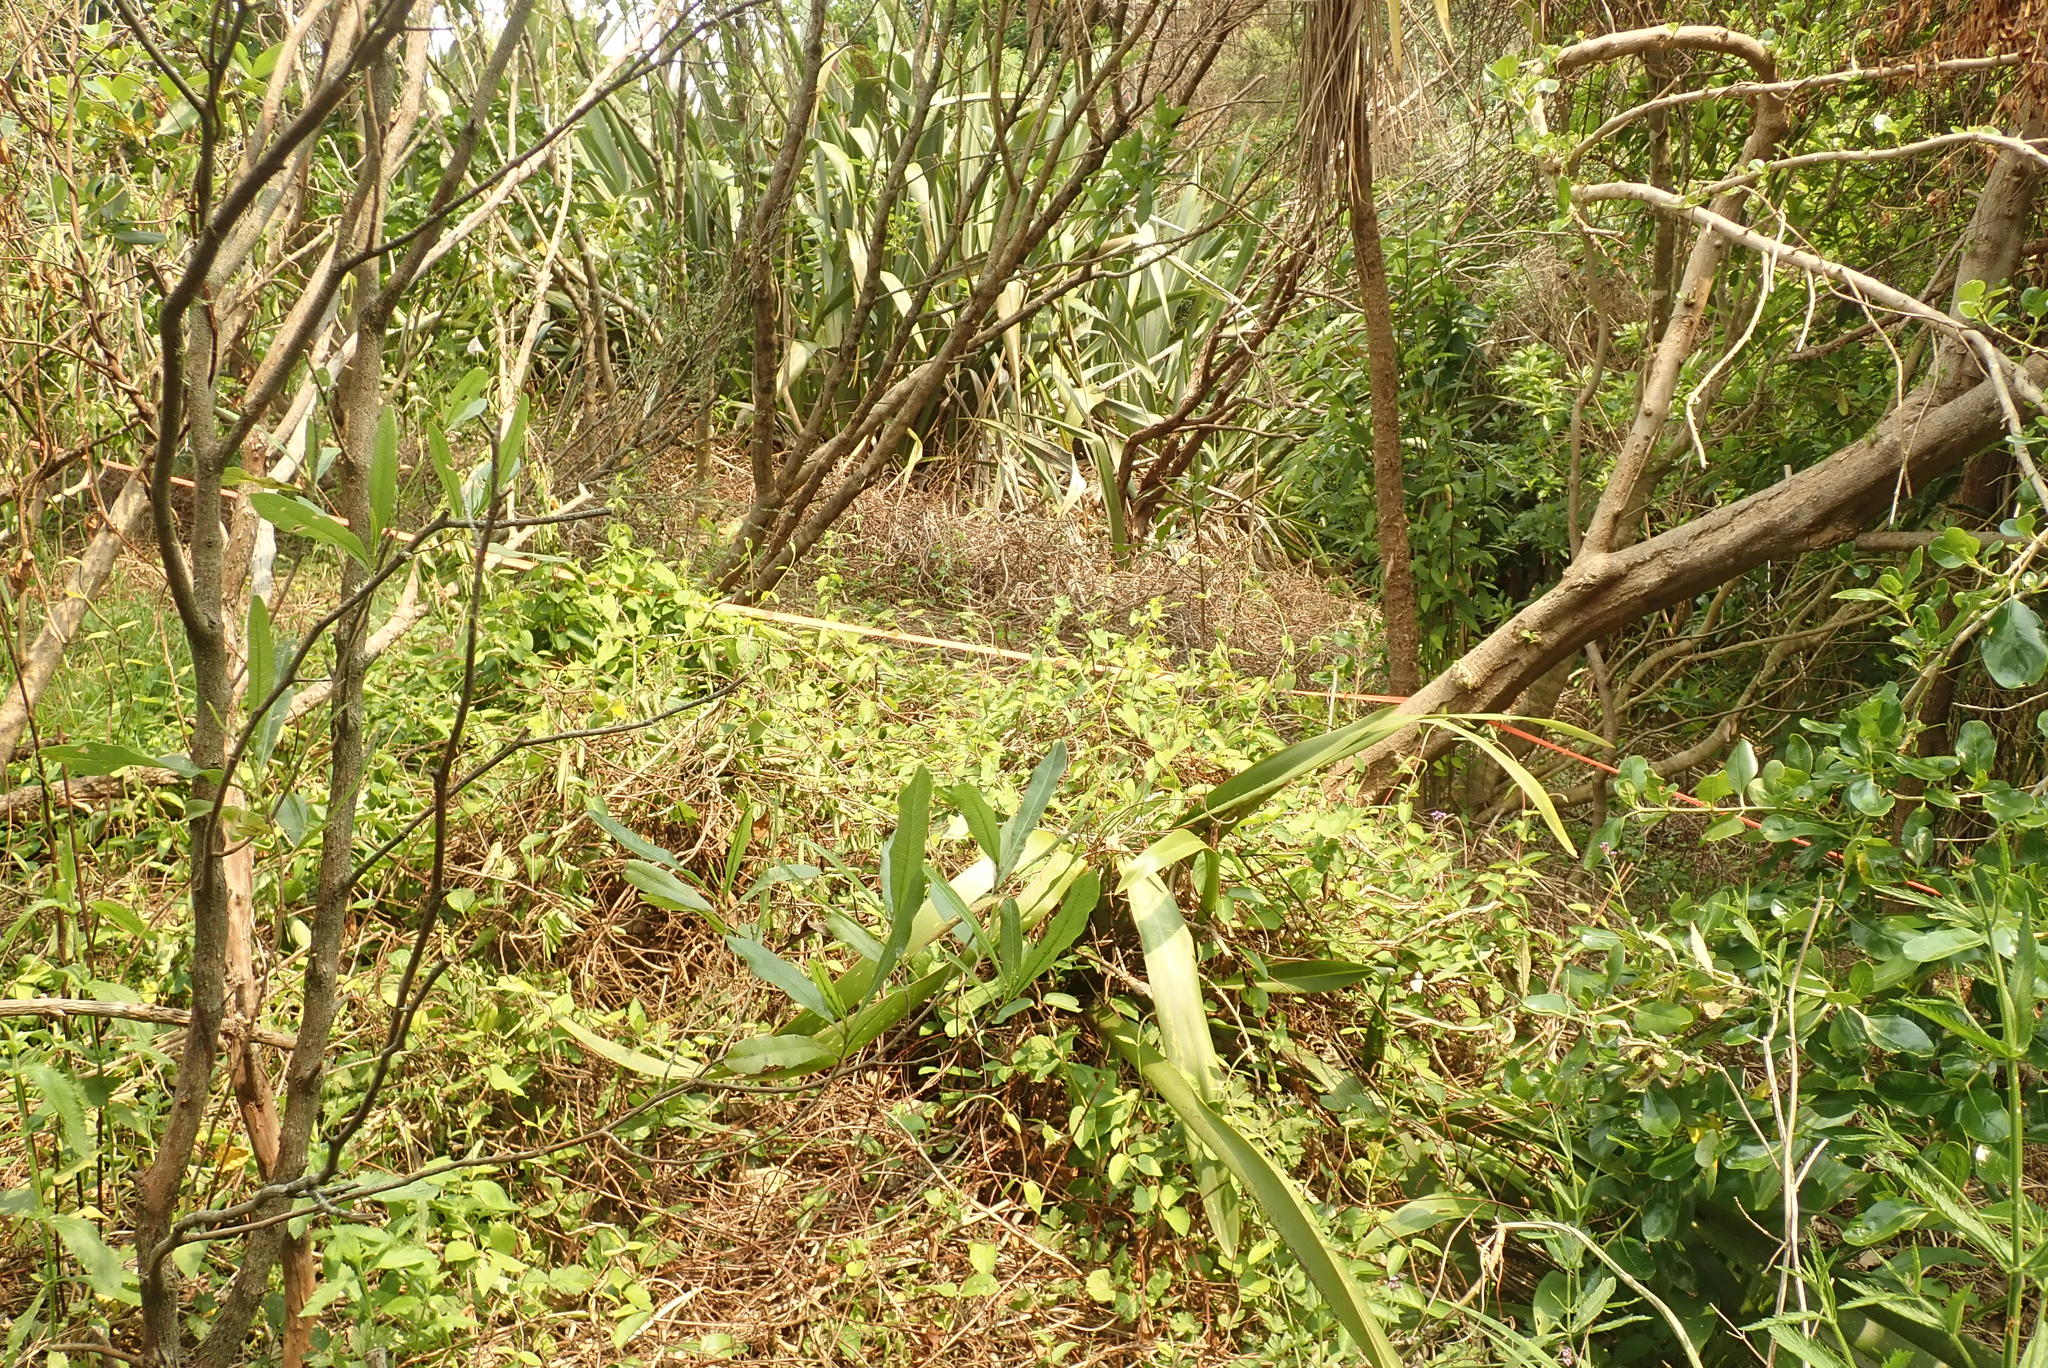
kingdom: Plantae
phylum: Tracheophyta
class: Magnoliopsida
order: Sapindales
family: Sapindaceae
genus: Dodonaea
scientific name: Dodonaea viscosa
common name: Hopbush
